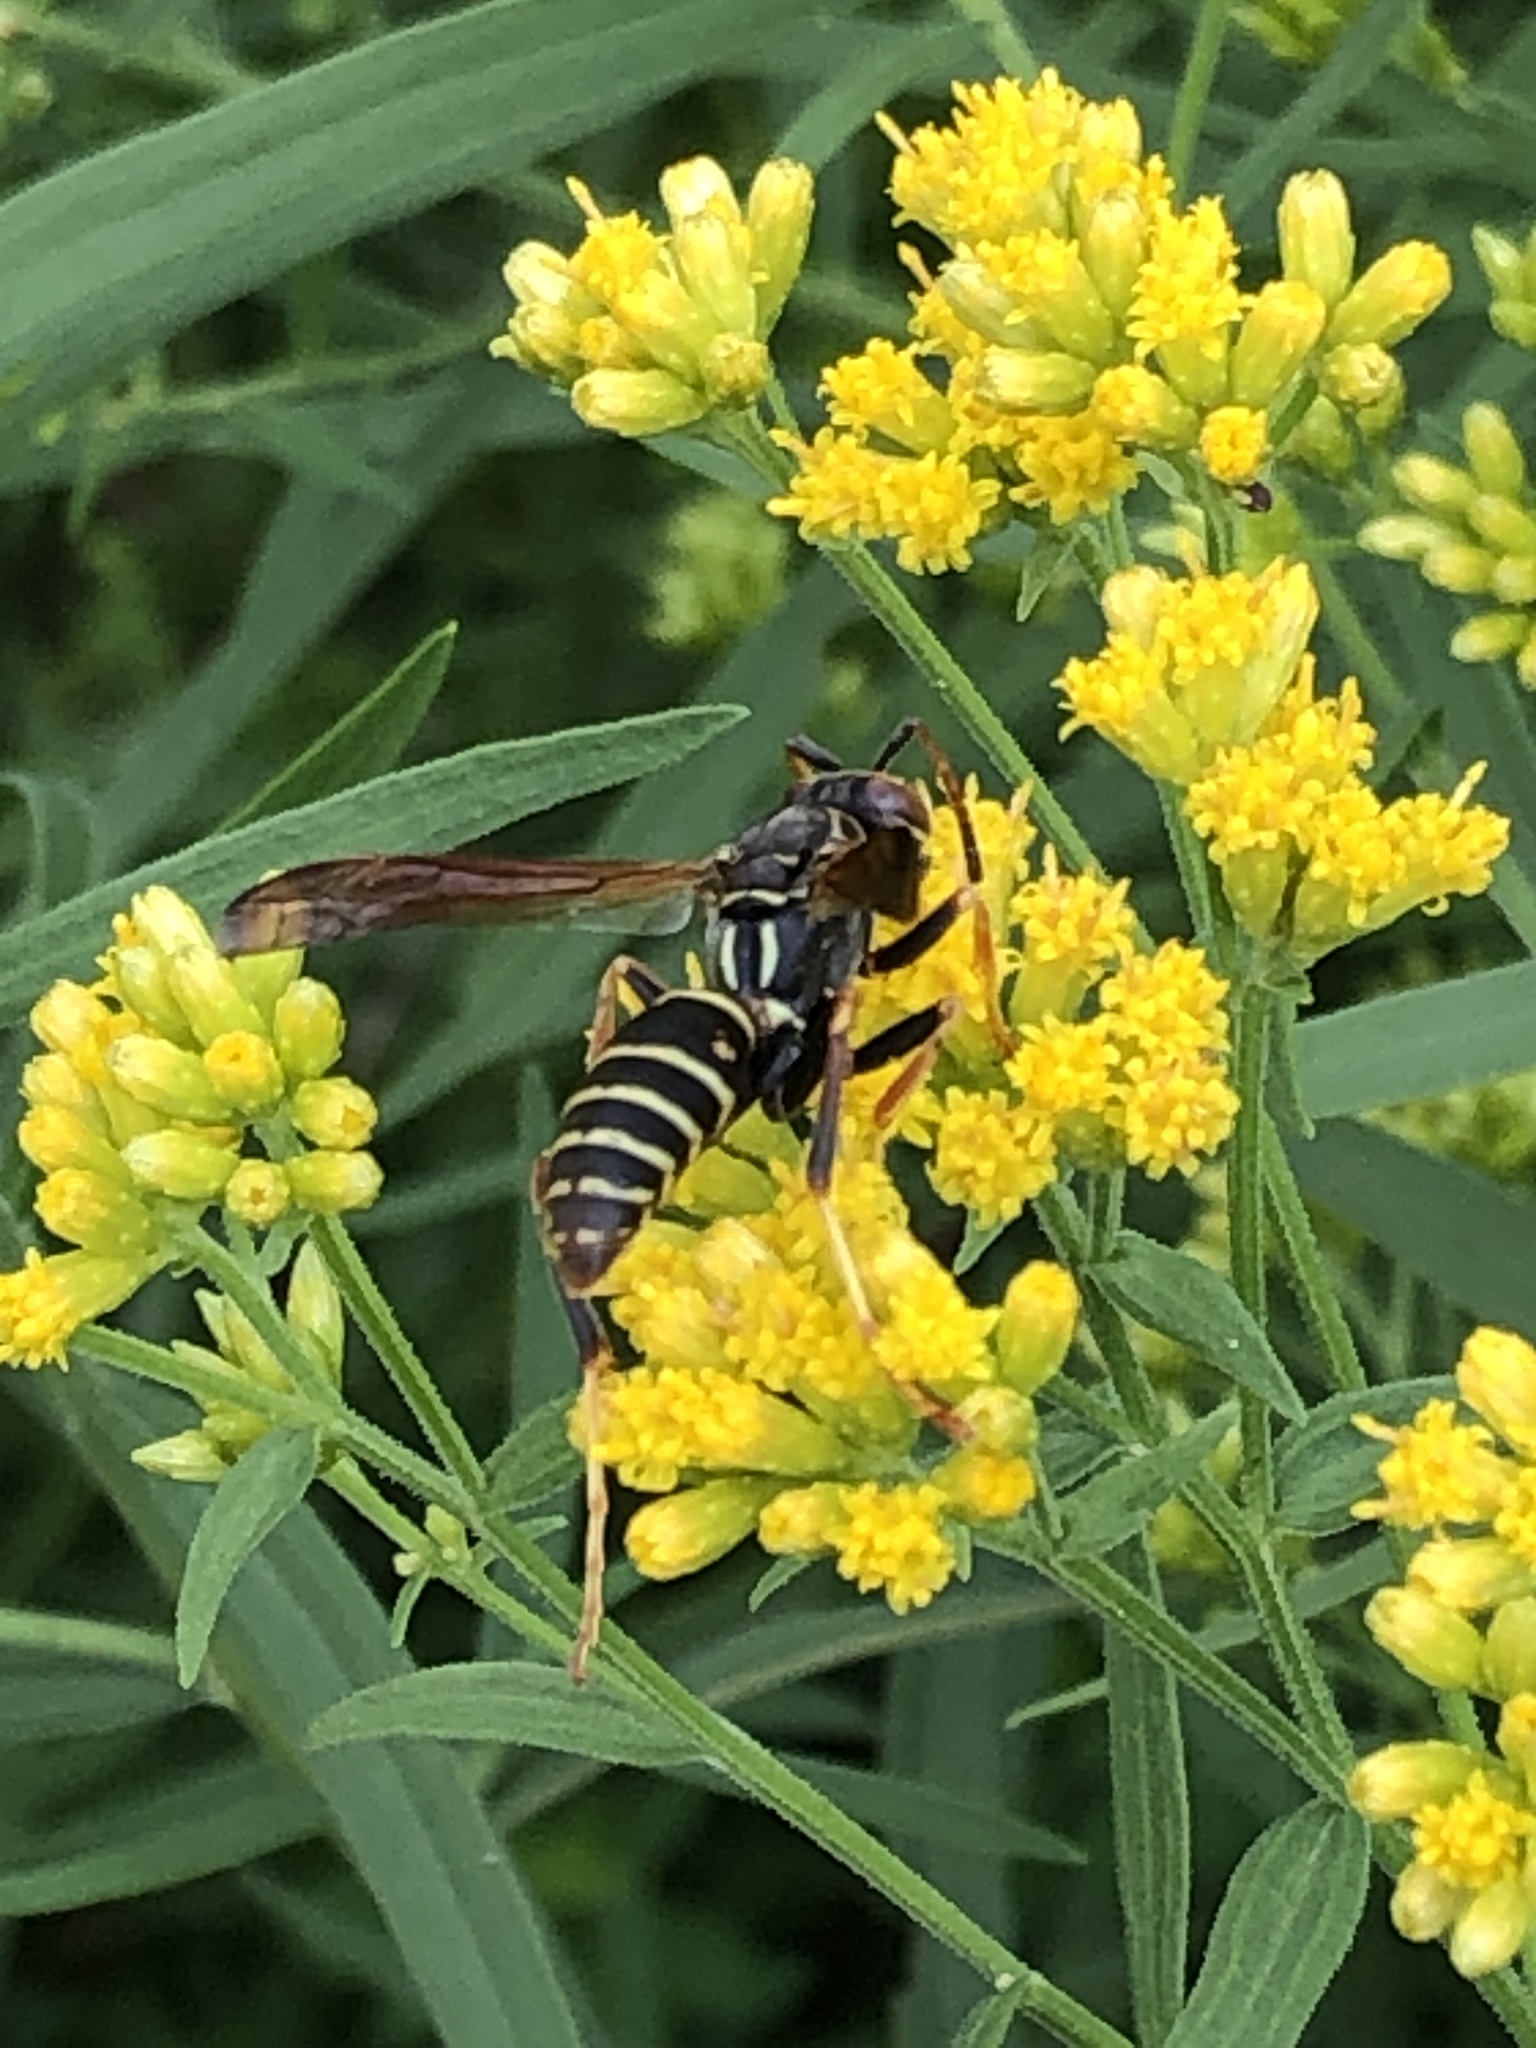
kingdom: Animalia
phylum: Arthropoda
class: Insecta
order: Hymenoptera
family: Eumenidae
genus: Polistes
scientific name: Polistes fuscatus
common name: Dark paper wasp
